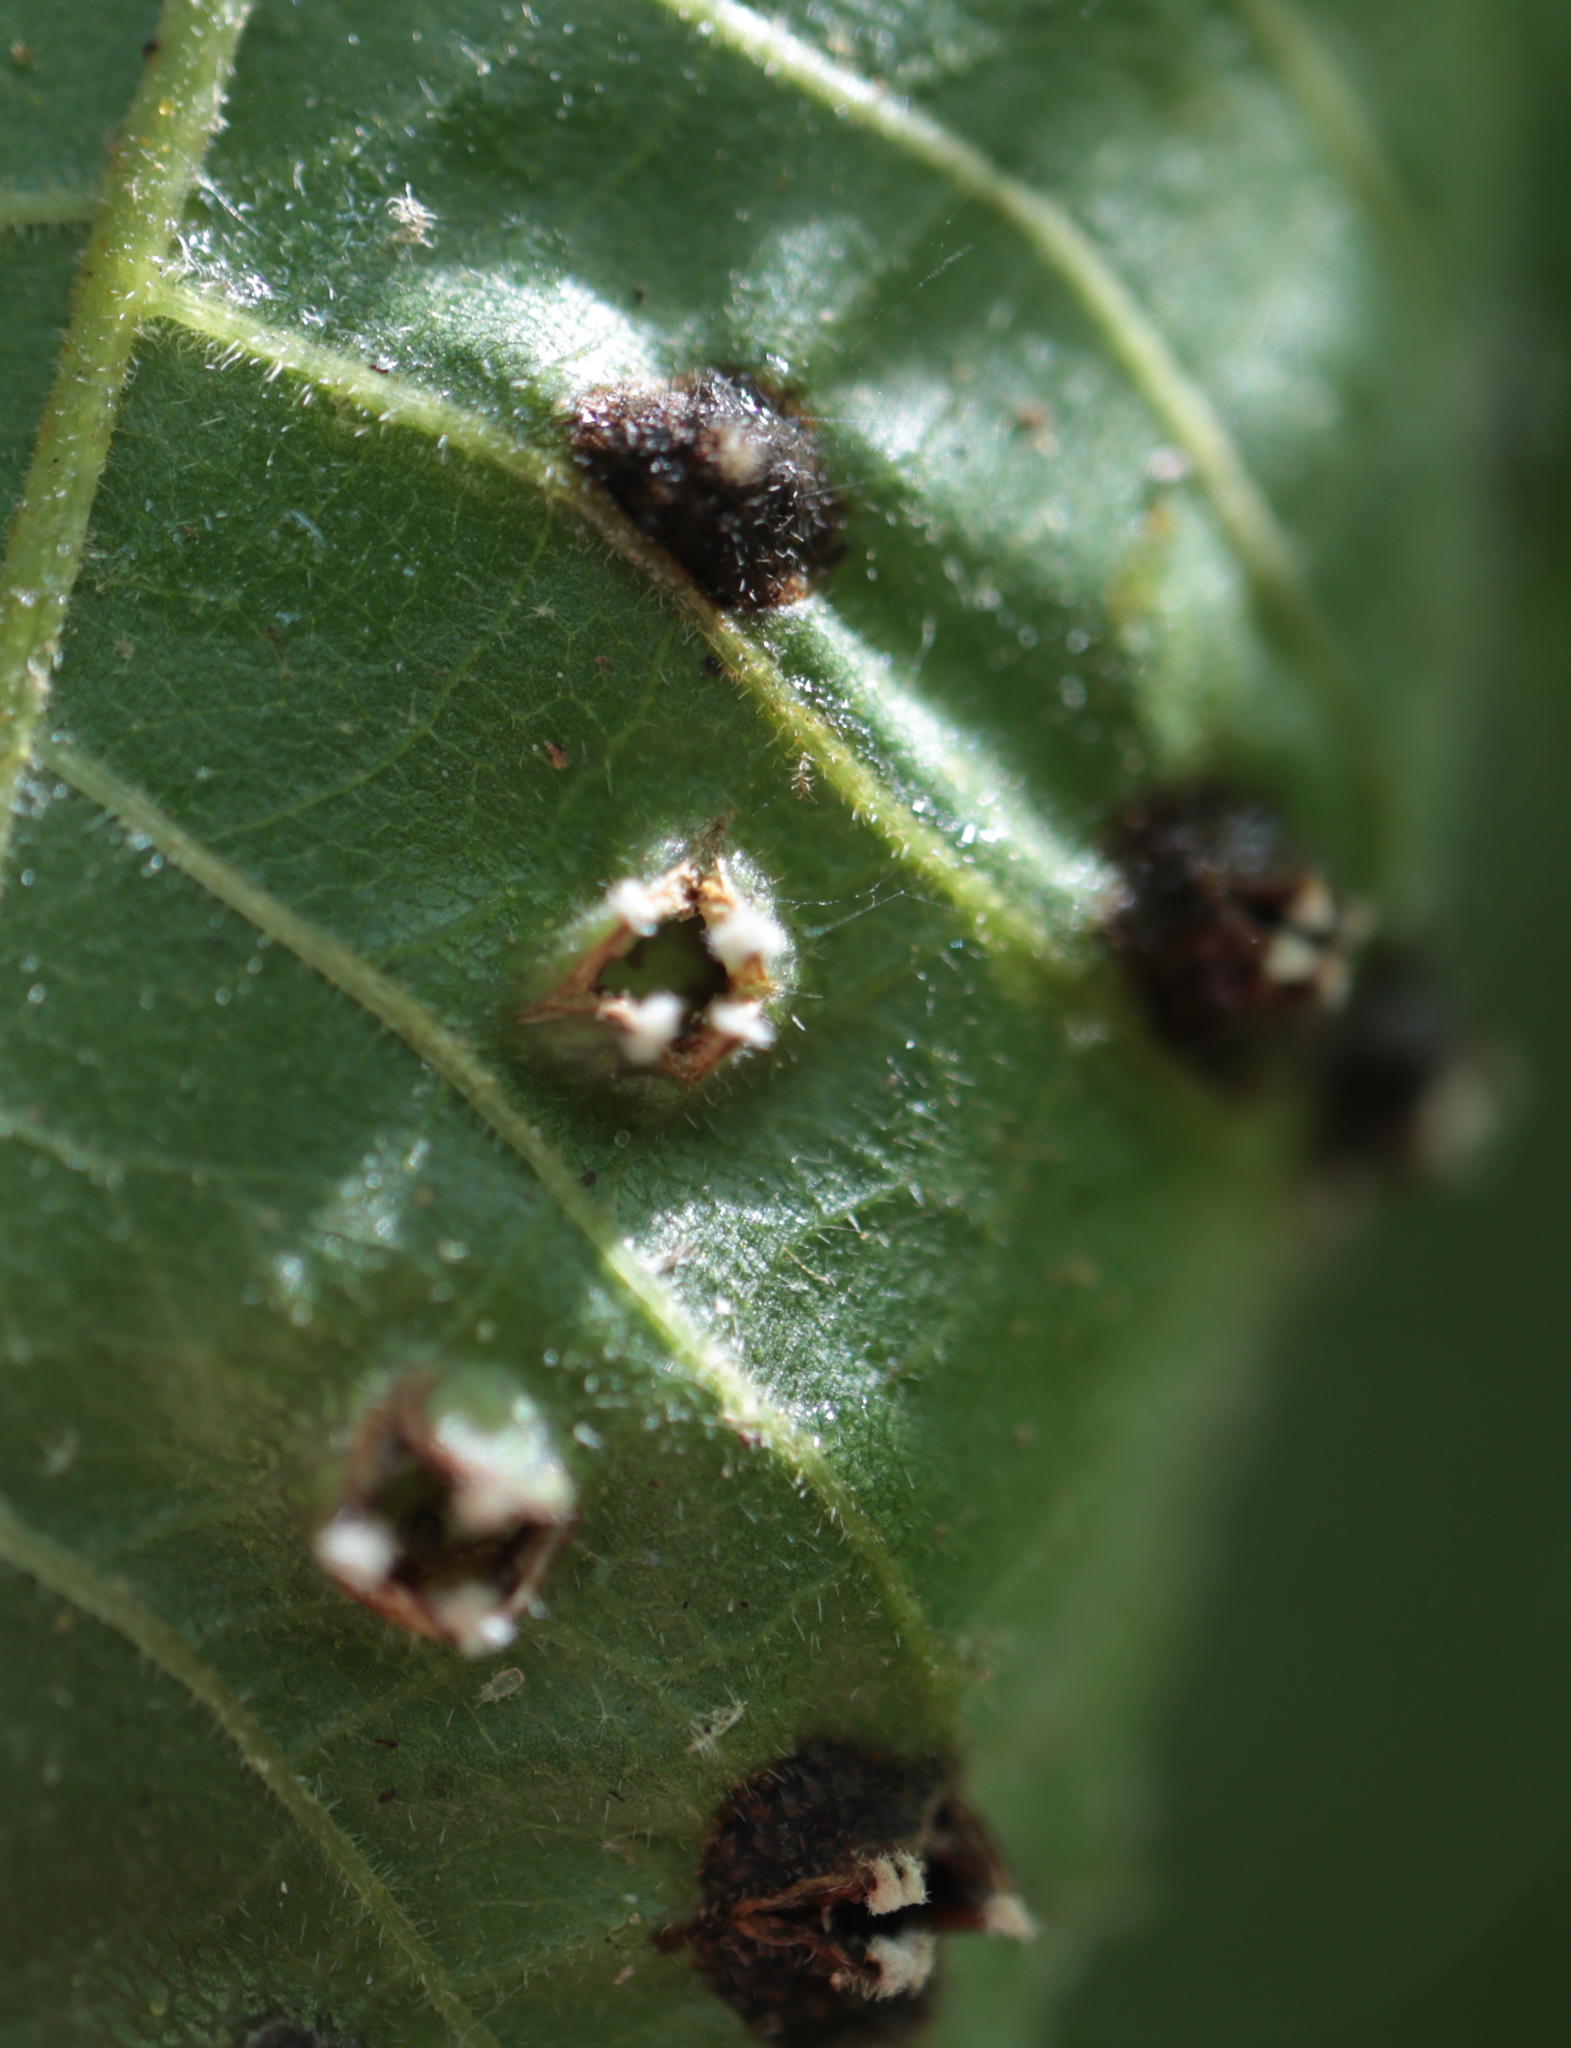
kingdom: Animalia
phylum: Arthropoda
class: Insecta
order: Hemiptera
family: Phylloxeridae
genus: Phylloxera
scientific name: Phylloxera caryae-semen
